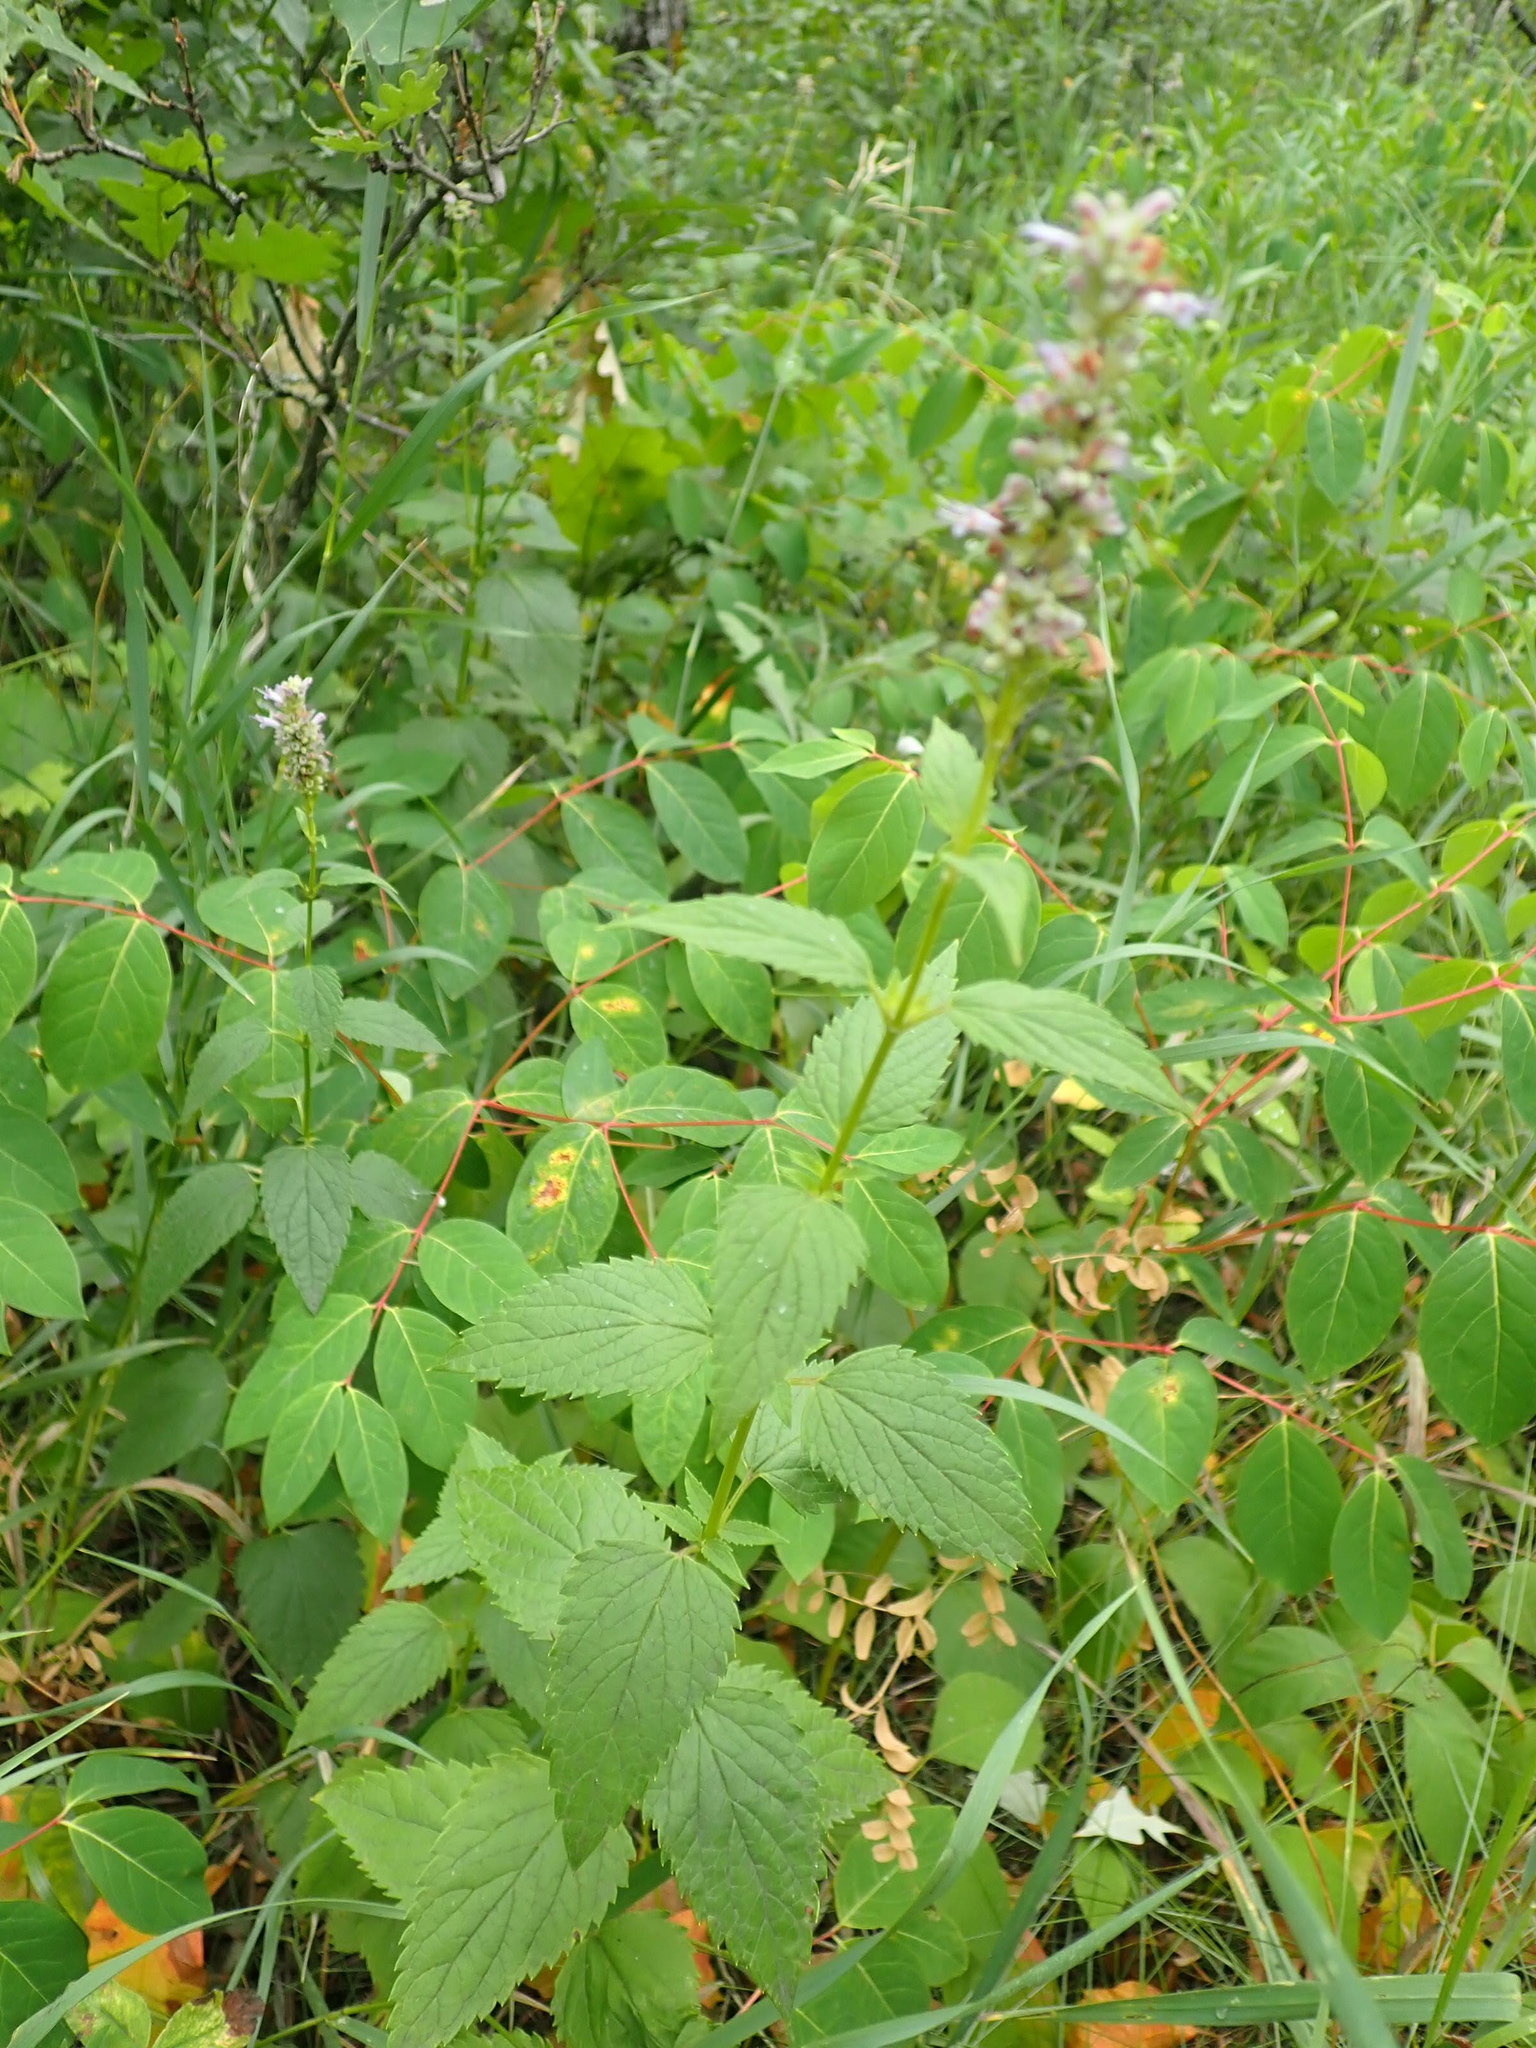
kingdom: Plantae
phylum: Tracheophyta
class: Magnoliopsida
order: Lamiales
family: Lamiaceae
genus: Agastache
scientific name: Agastache foeniculum
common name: Anise hyssop
